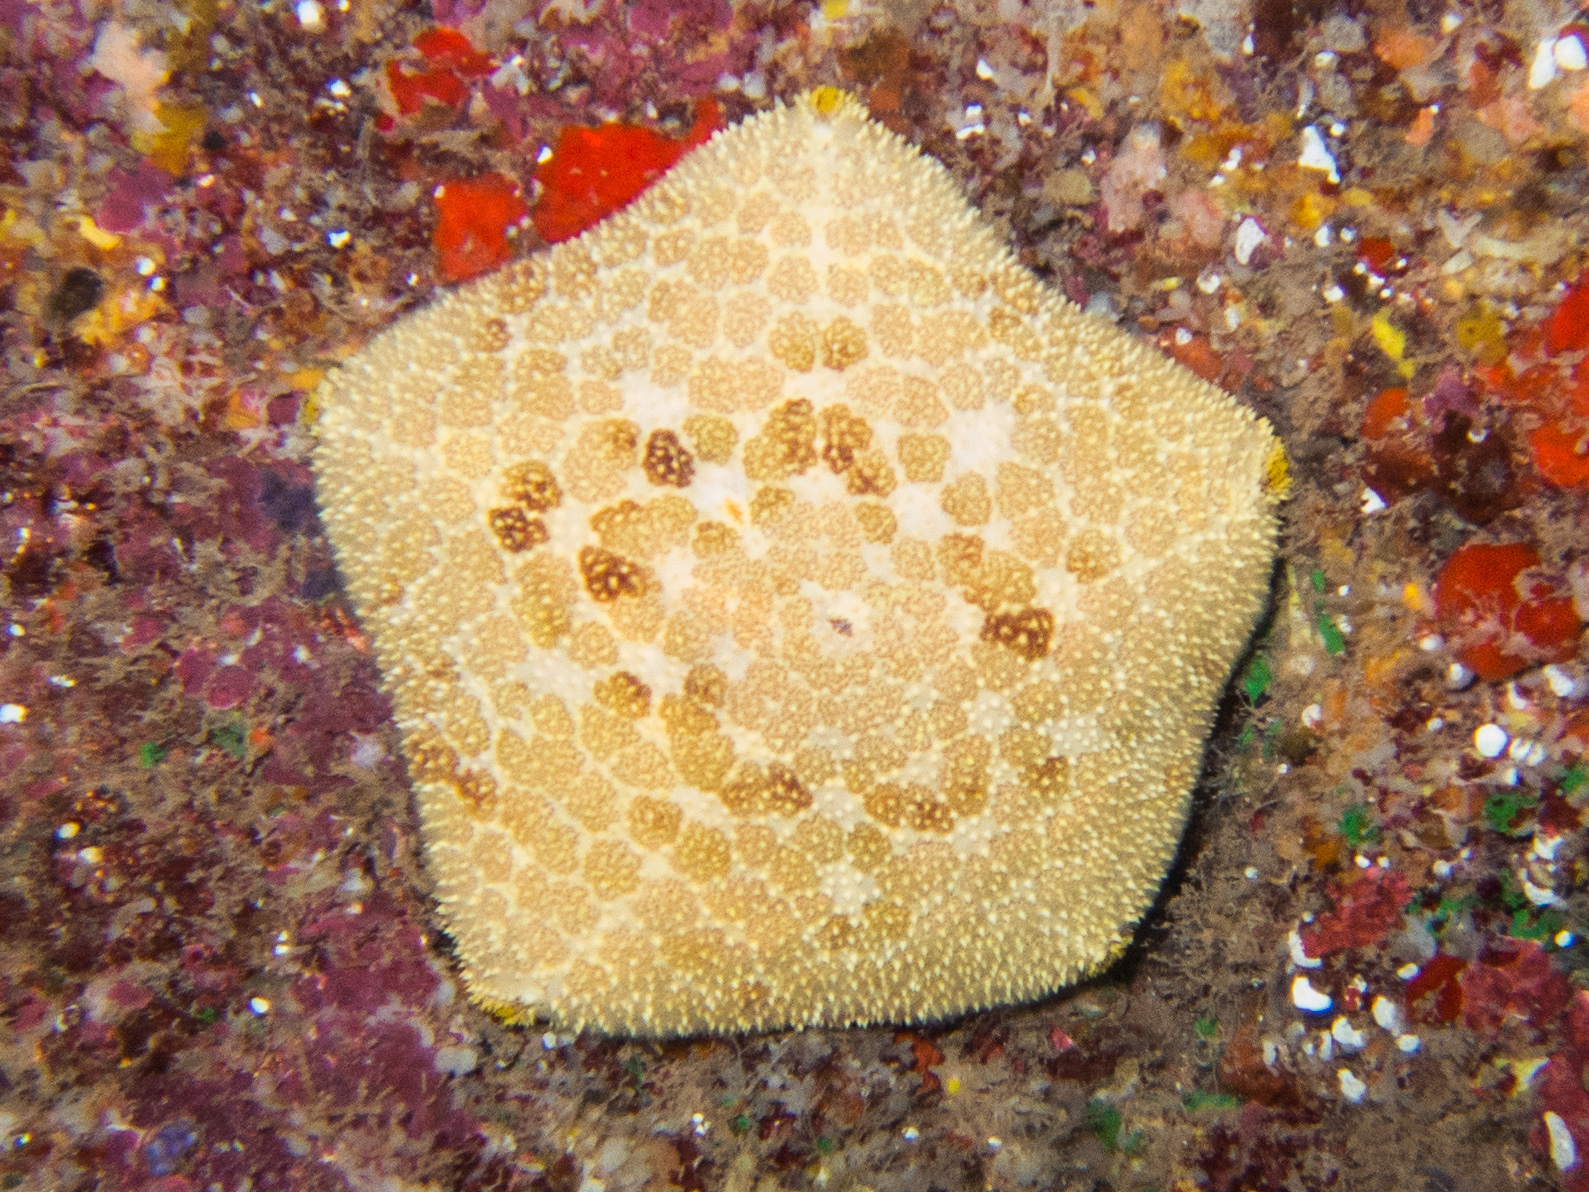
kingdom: Animalia
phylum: Echinodermata
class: Asteroidea
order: Valvatida
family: Oreasteridae
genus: Culcita
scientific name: Culcita novaeguineae
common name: Cushion star
